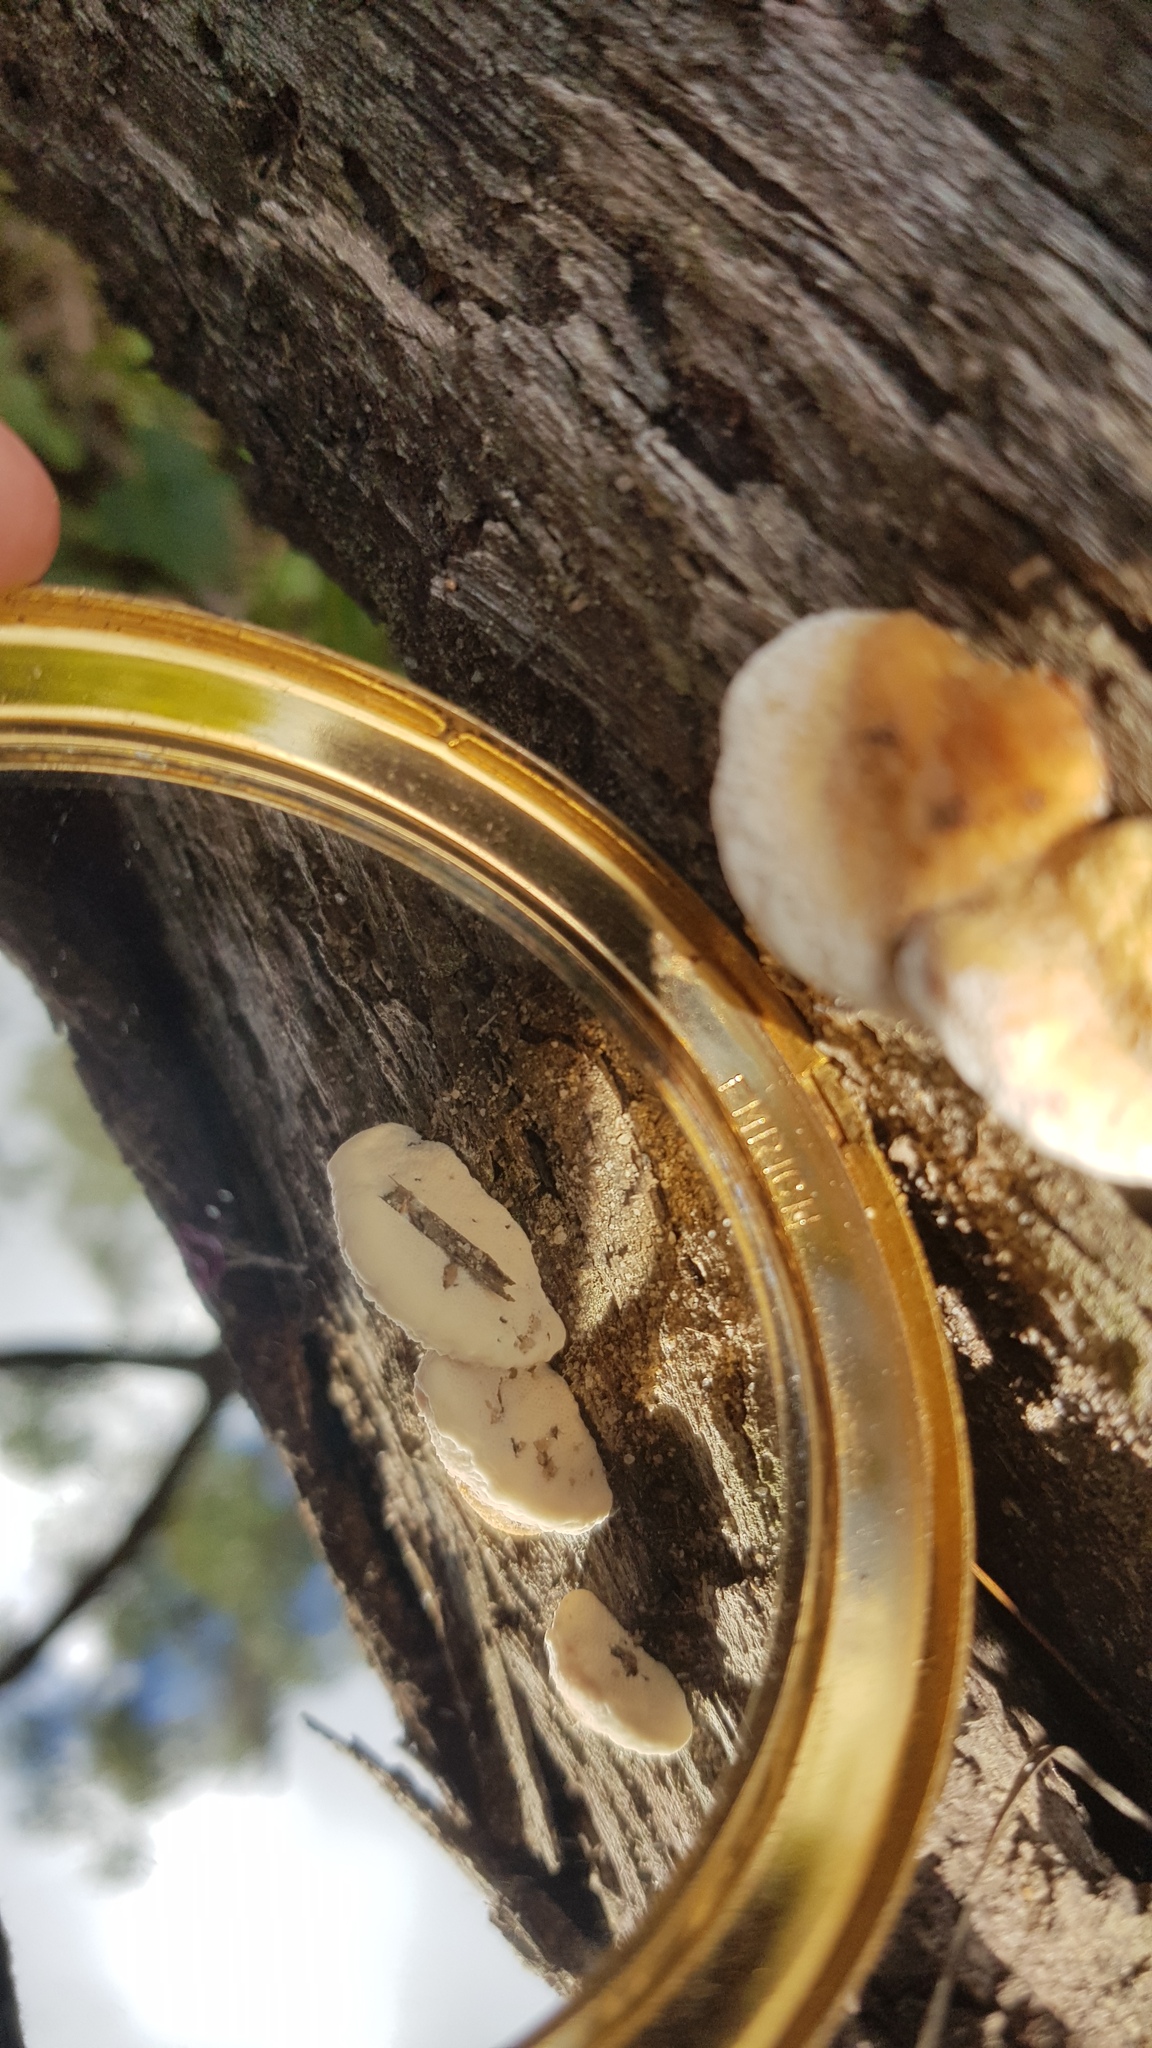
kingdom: Fungi
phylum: Basidiomycota
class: Agaricomycetes
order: Polyporales
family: Polyporaceae
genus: Truncospora
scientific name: Truncospora ochroleuca
